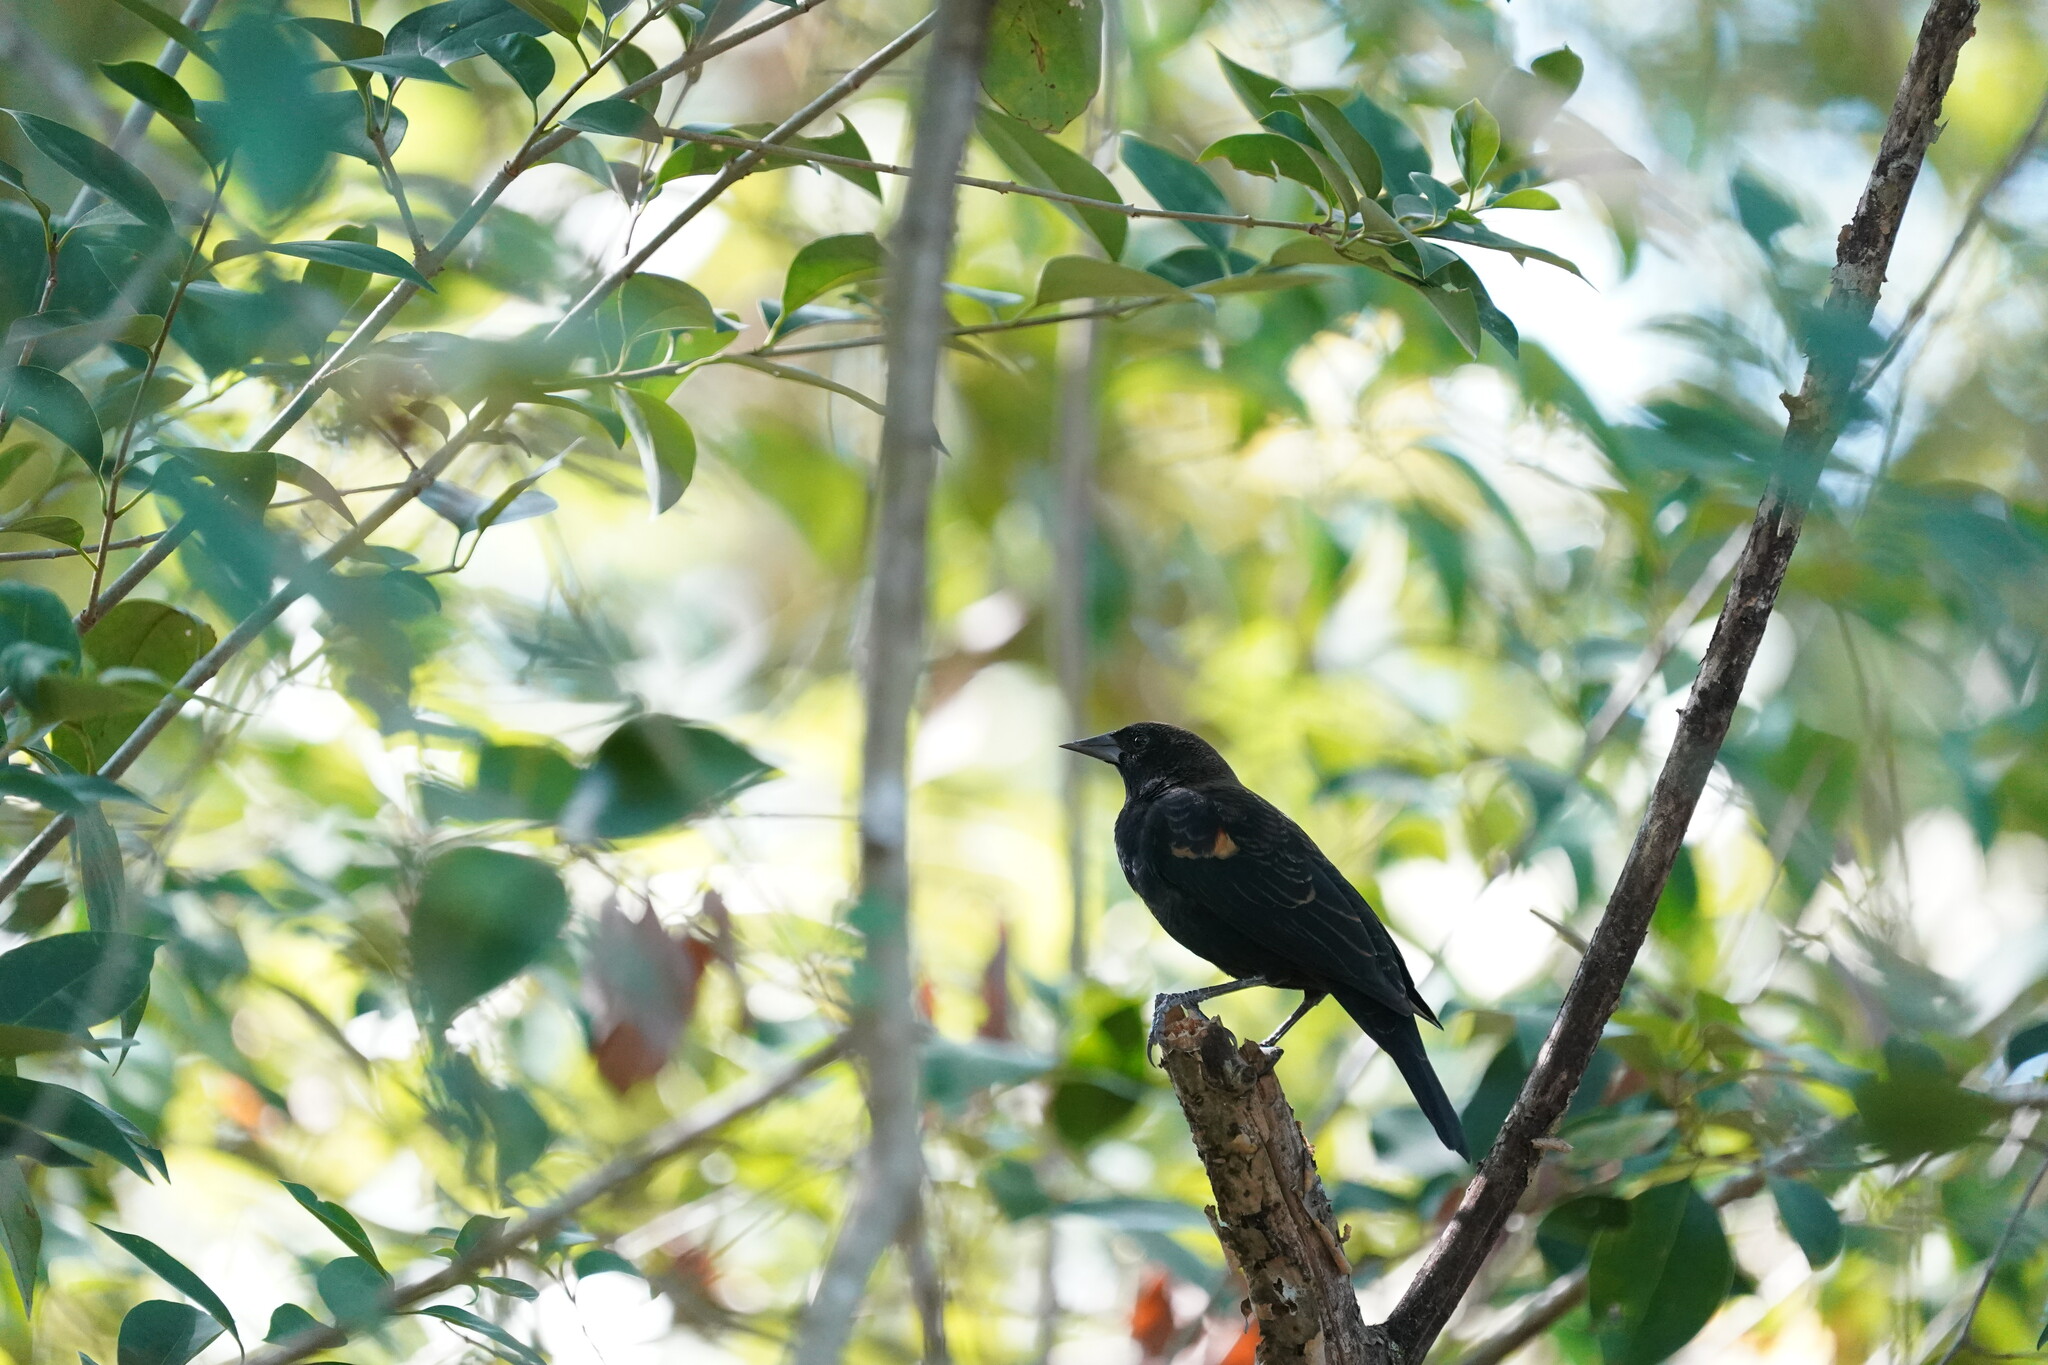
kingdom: Animalia
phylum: Chordata
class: Aves
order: Passeriformes
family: Icteridae
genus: Agelaius
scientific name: Agelaius phoeniceus
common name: Red-winged blackbird
